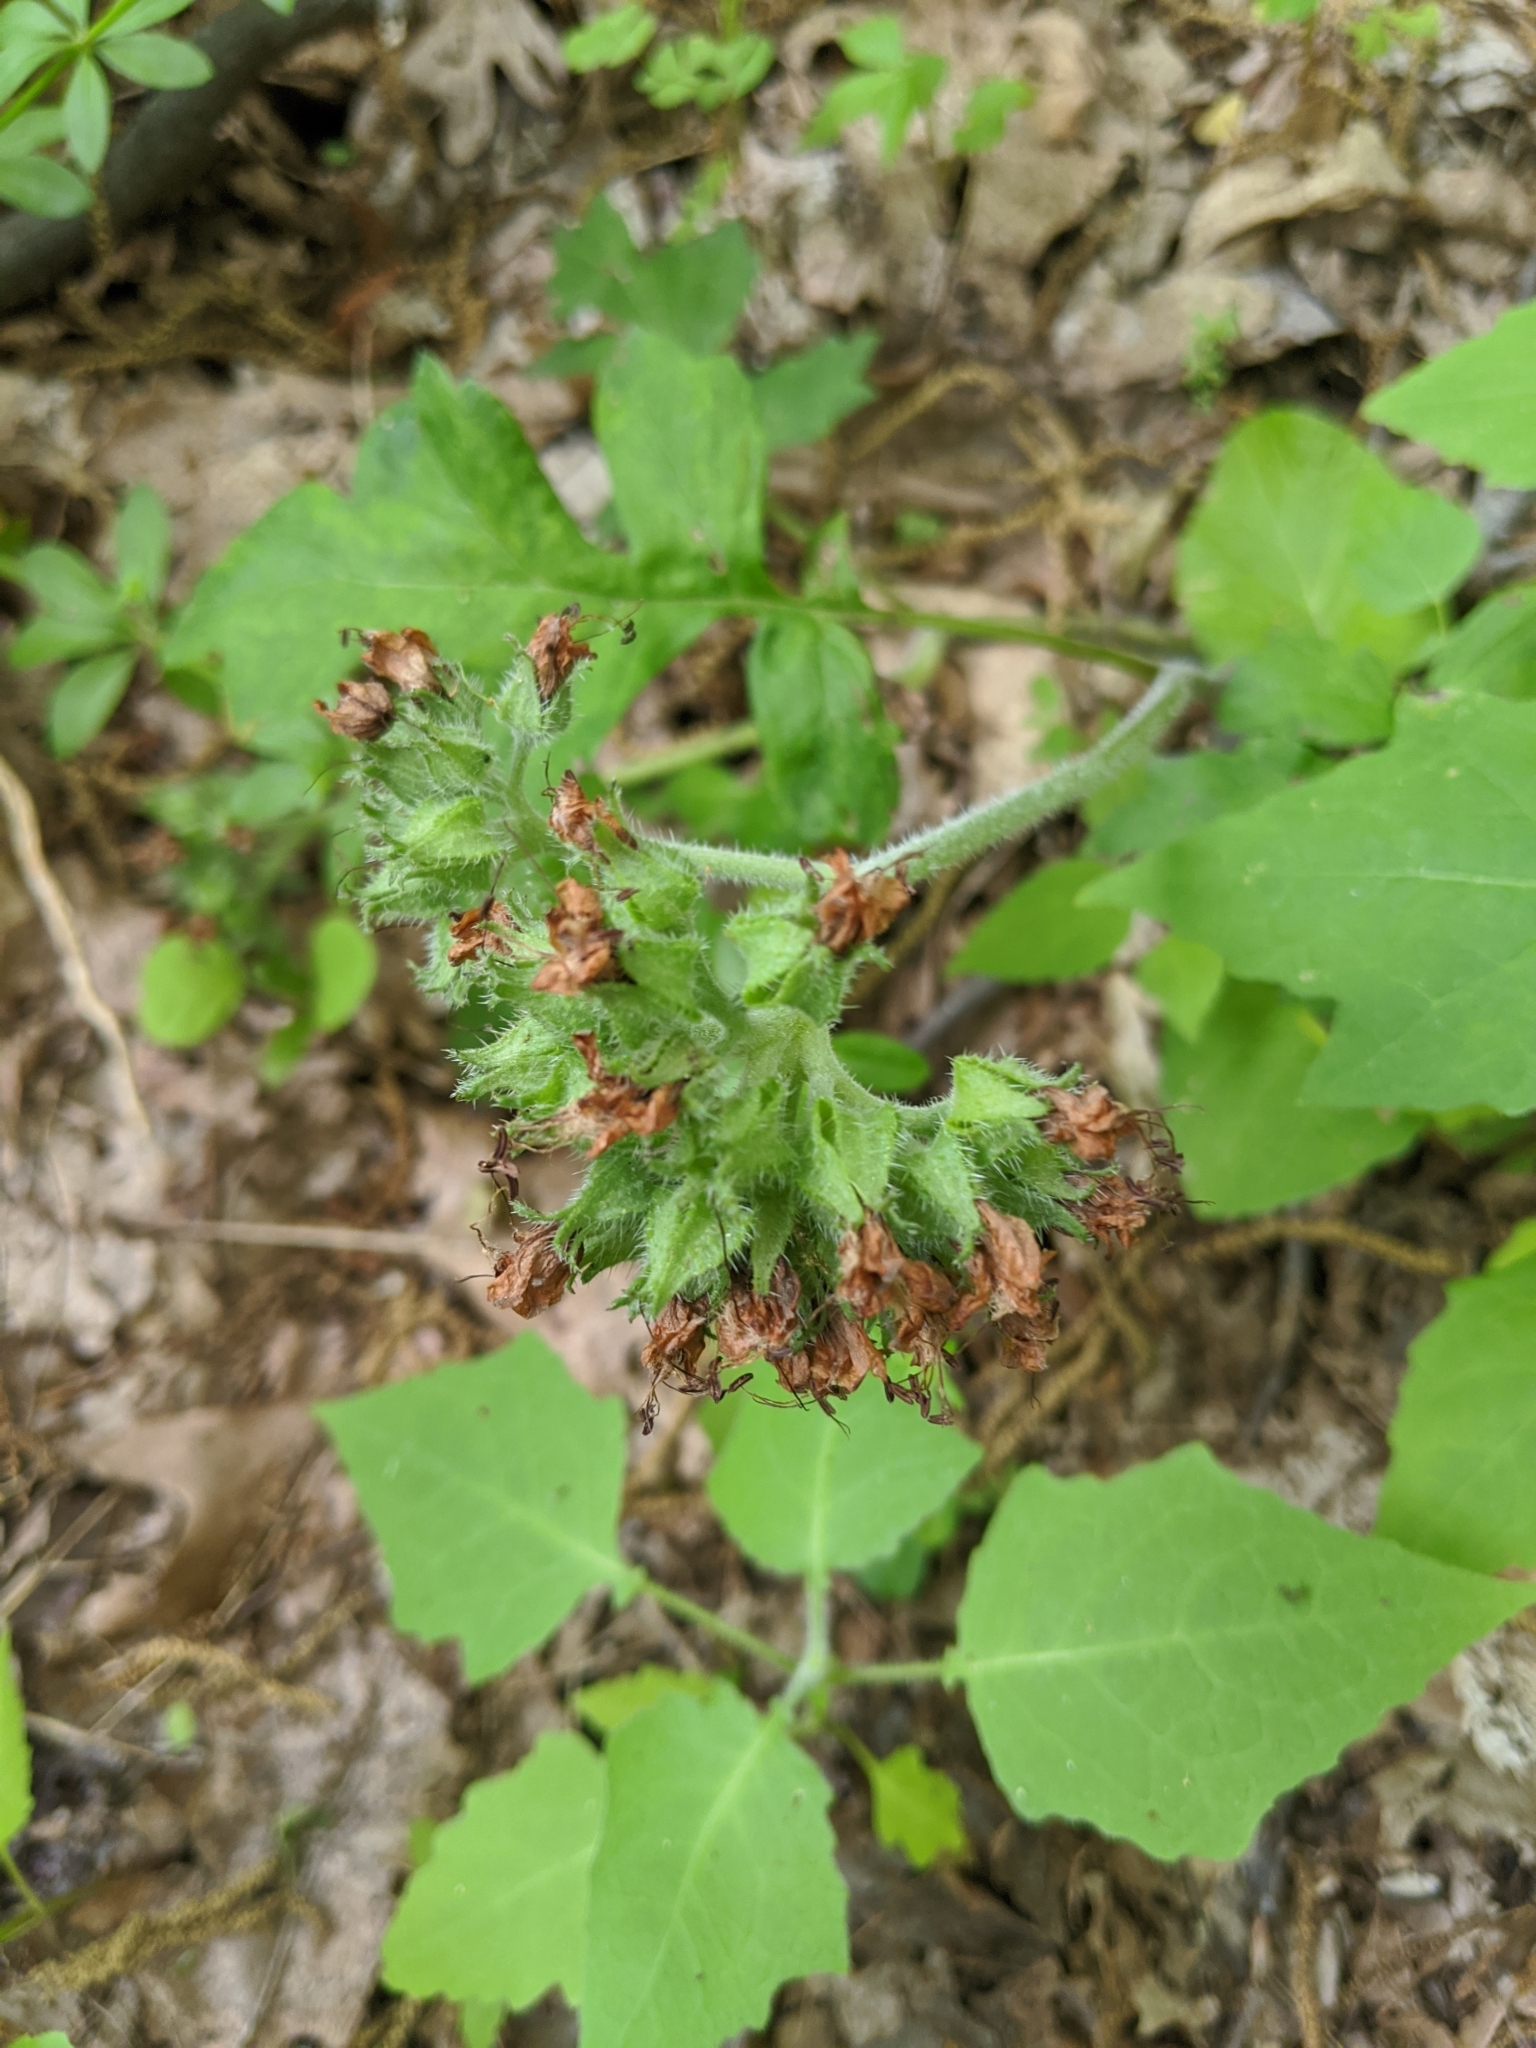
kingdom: Plantae
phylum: Tracheophyta
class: Magnoliopsida
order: Boraginales
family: Hydrophyllaceae
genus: Hydrophyllum
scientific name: Hydrophyllum macrophyllum
